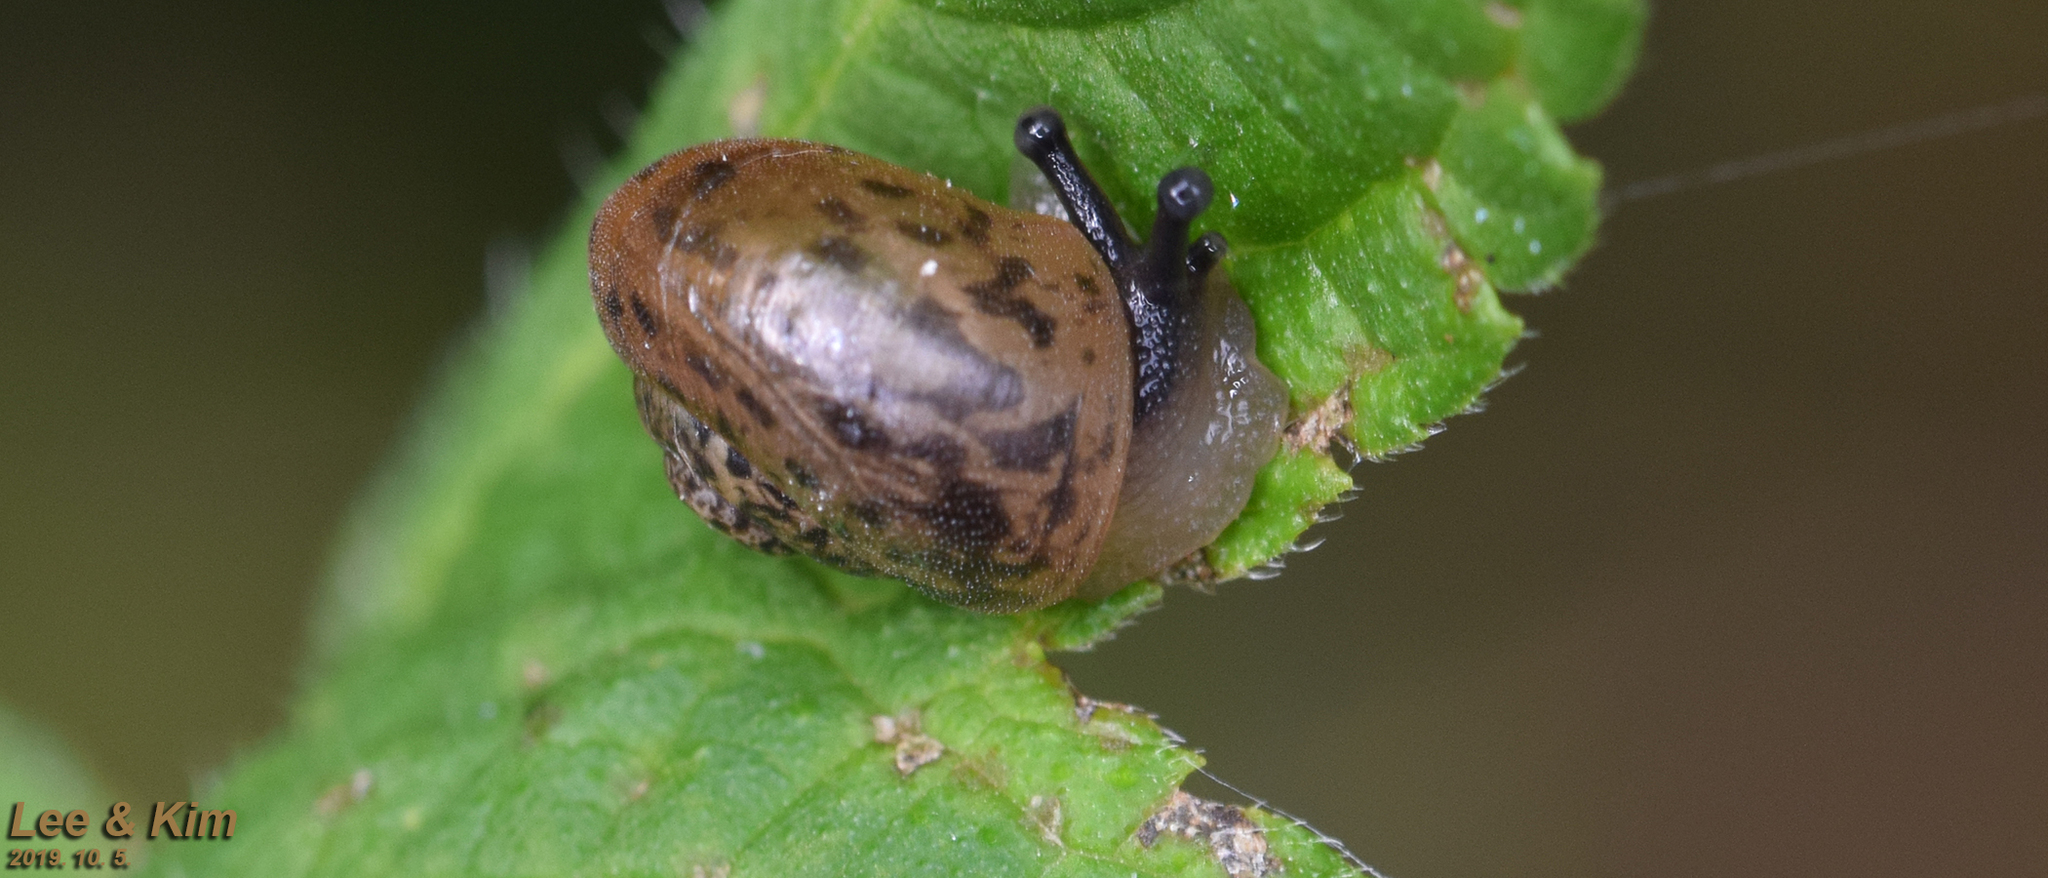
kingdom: Animalia
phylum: Mollusca
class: Gastropoda
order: Stylommatophora
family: Camaenidae
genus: Acusta
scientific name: Acusta redfieldi
